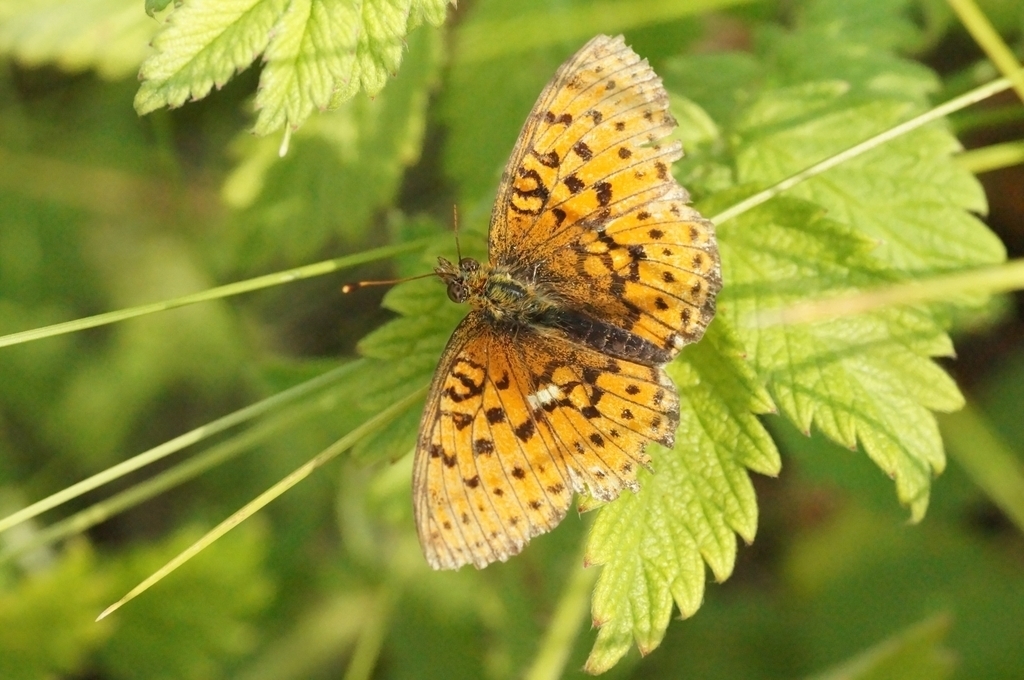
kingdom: Animalia
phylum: Arthropoda
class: Insecta
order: Lepidoptera
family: Nymphalidae
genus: Brenthis
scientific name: Brenthis ino
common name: Lesser marbled fritillary
